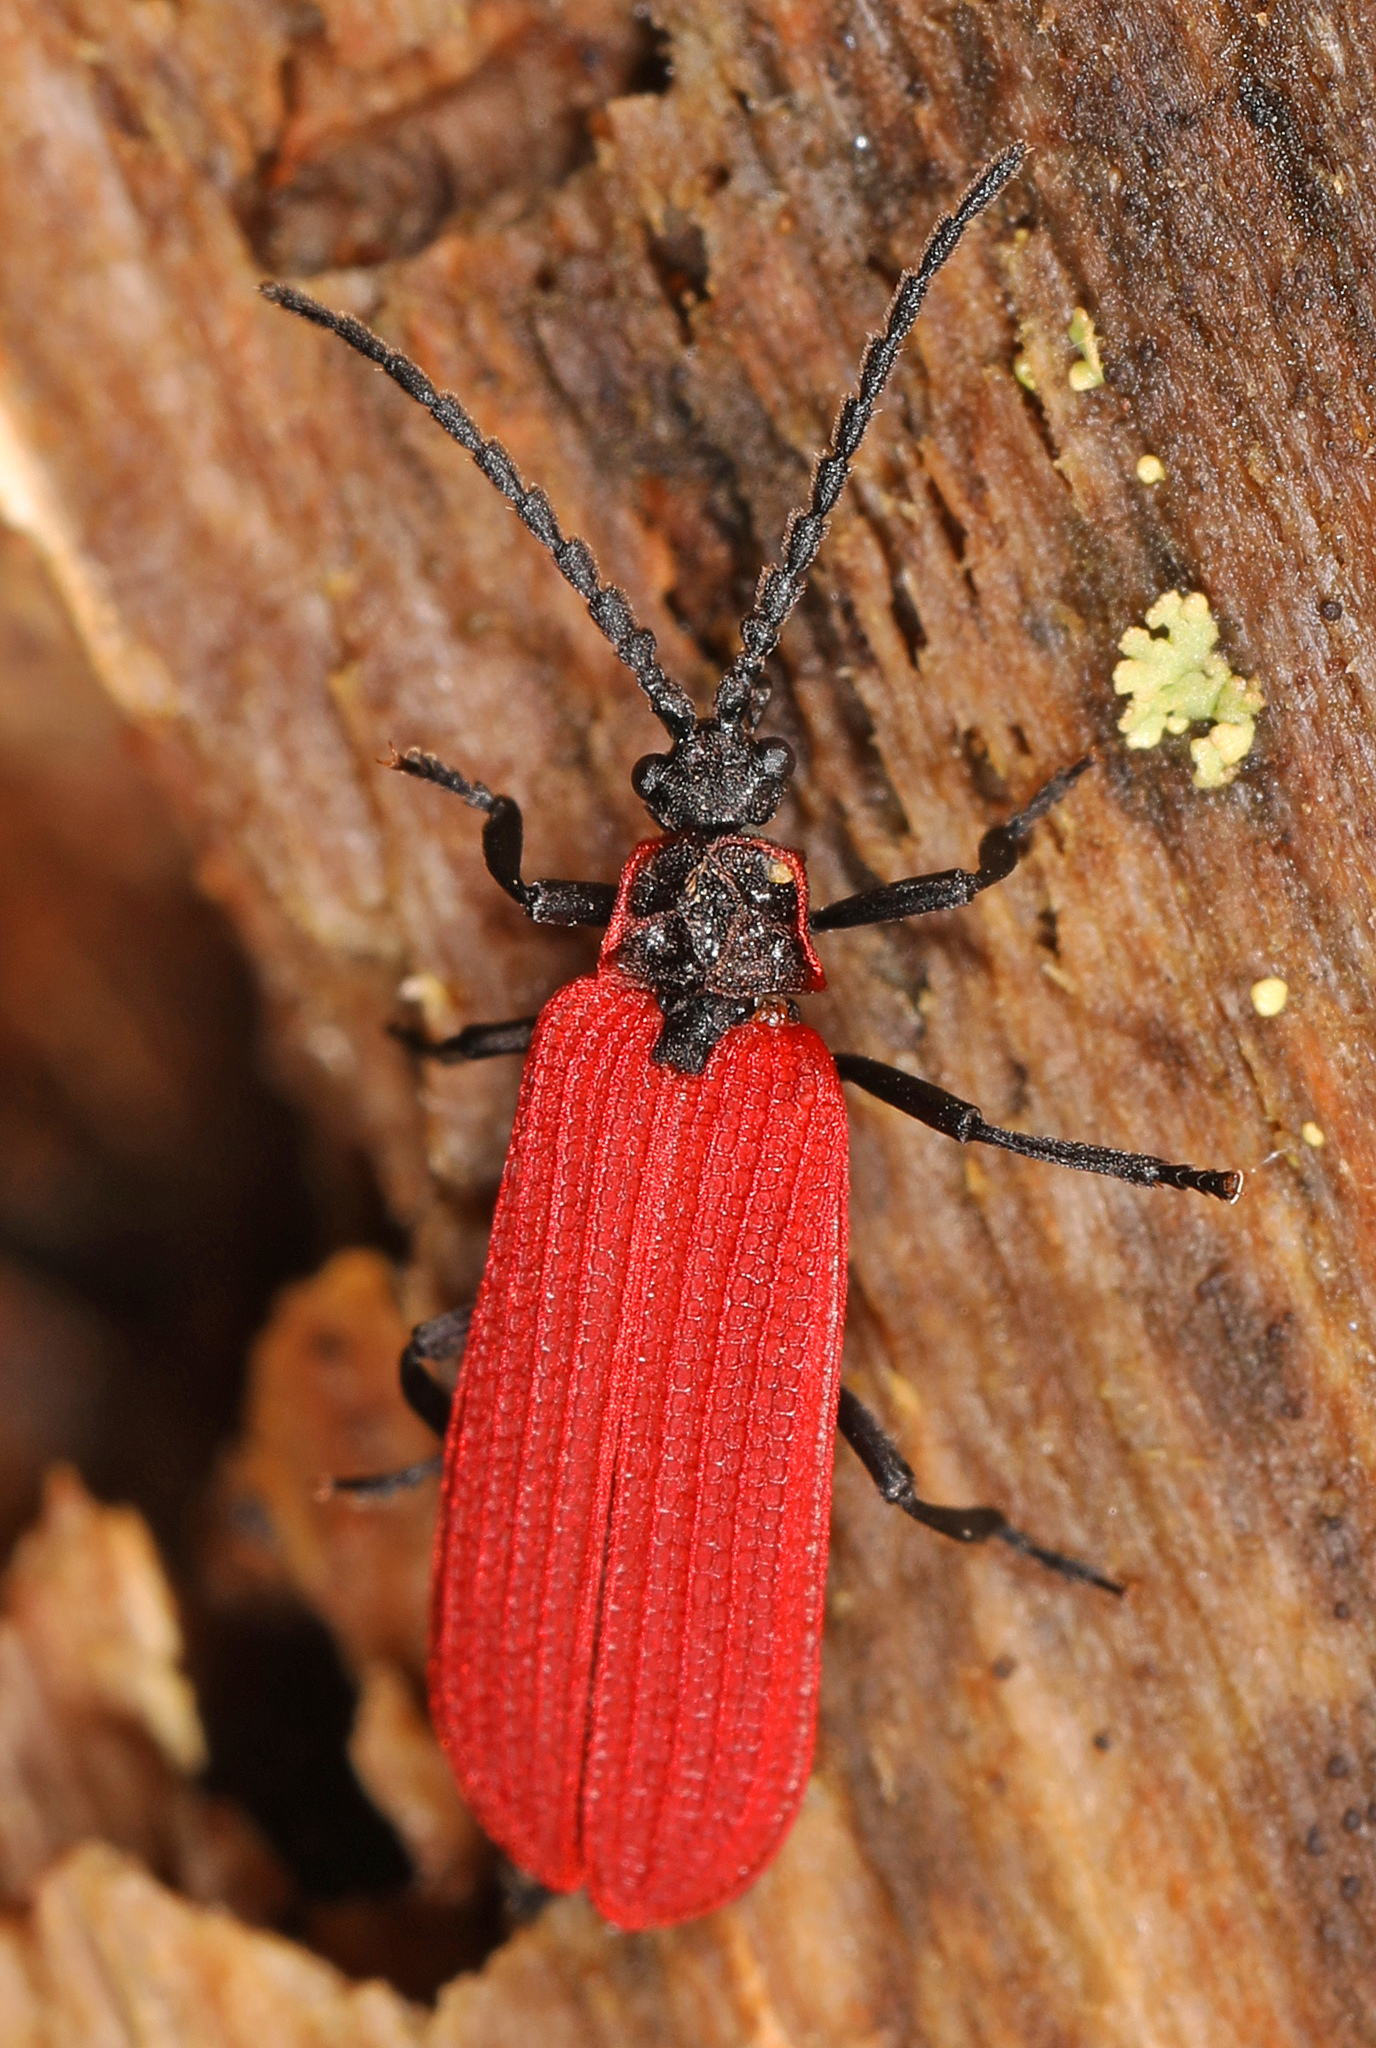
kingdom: Animalia
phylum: Arthropoda
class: Insecta
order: Coleoptera
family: Lycidae
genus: Dictyoptera
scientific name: Dictyoptera aurora
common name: Golden net-winged beetle
